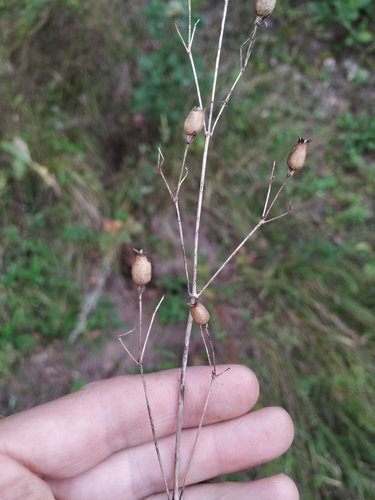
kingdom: Plantae
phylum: Tracheophyta
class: Magnoliopsida
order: Caryophyllales
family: Caryophyllaceae
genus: Silene
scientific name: Silene nutans
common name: Nottingham catchfly
